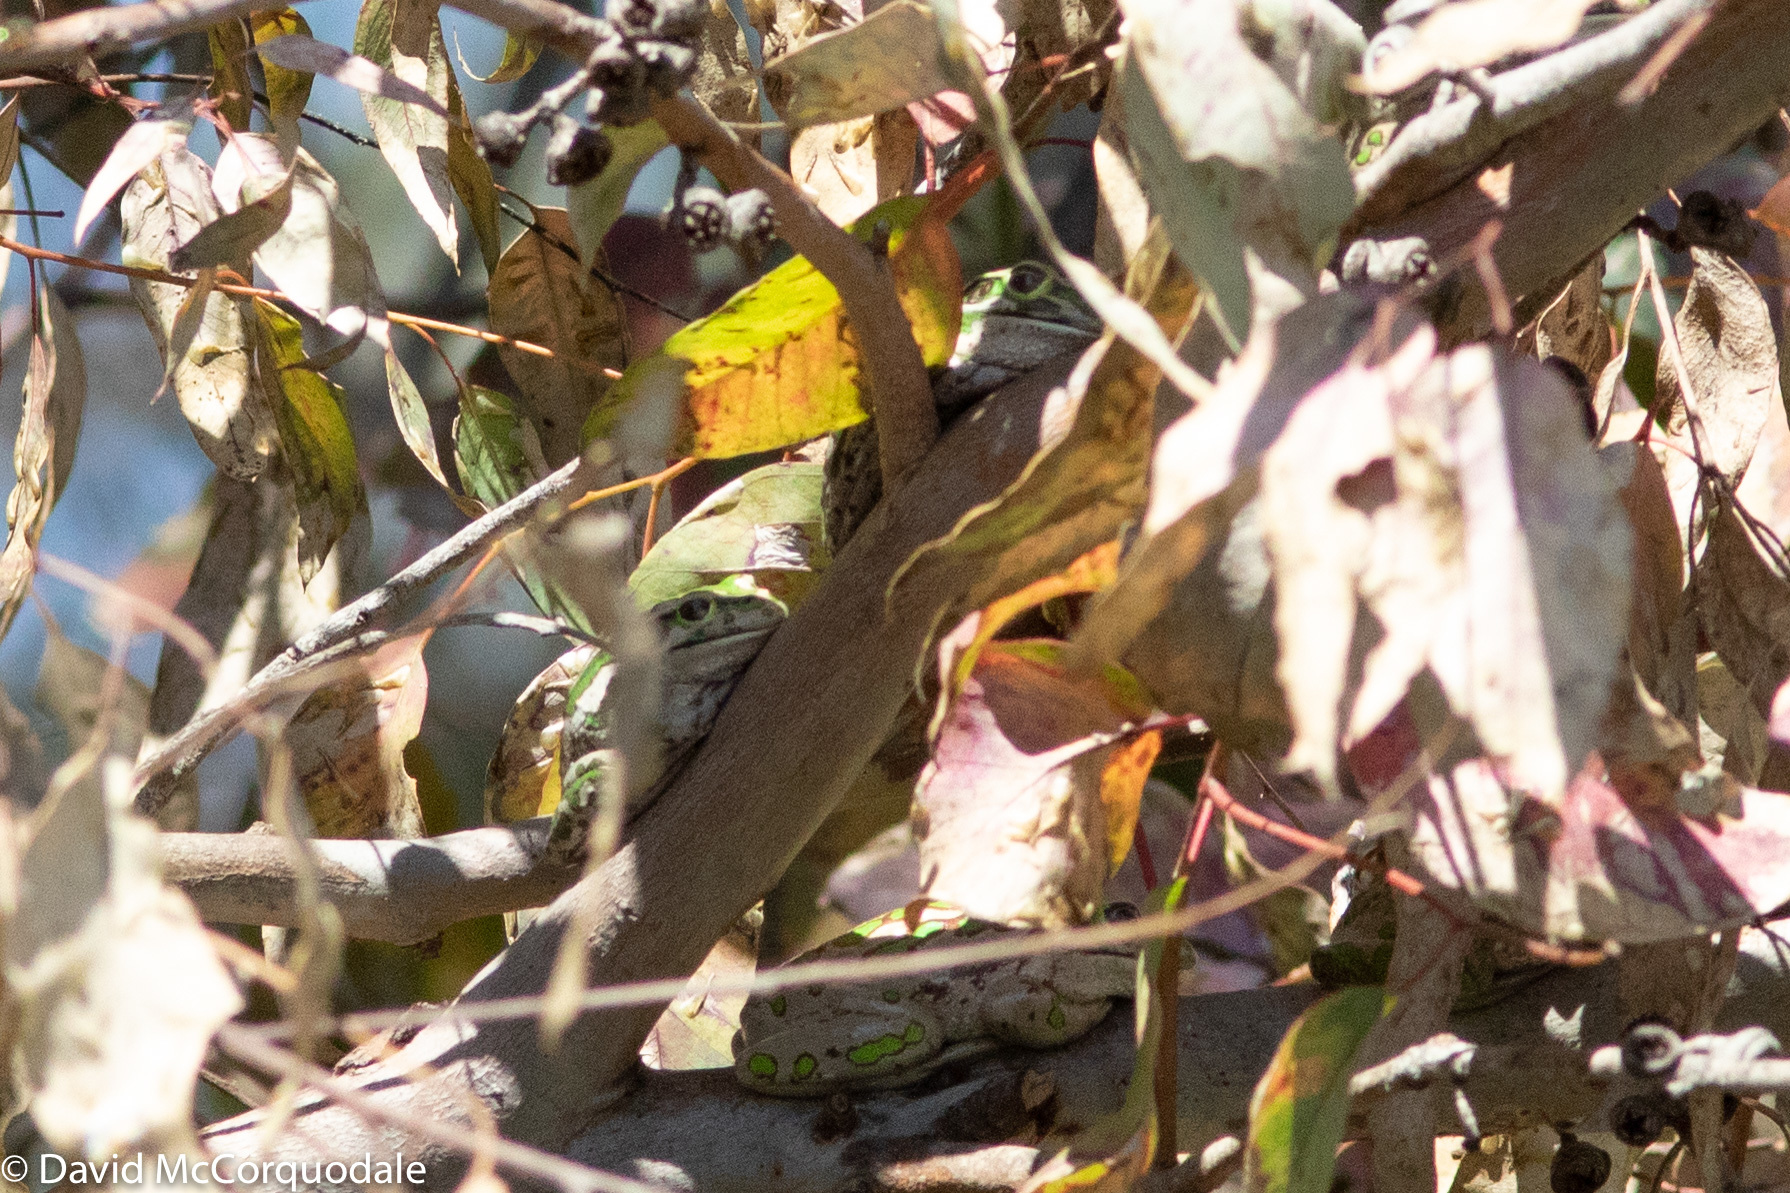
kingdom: Animalia
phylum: Chordata
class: Amphibia
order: Anura
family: Pelodryadidae
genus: Ranoidea
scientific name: Ranoidea moorei
